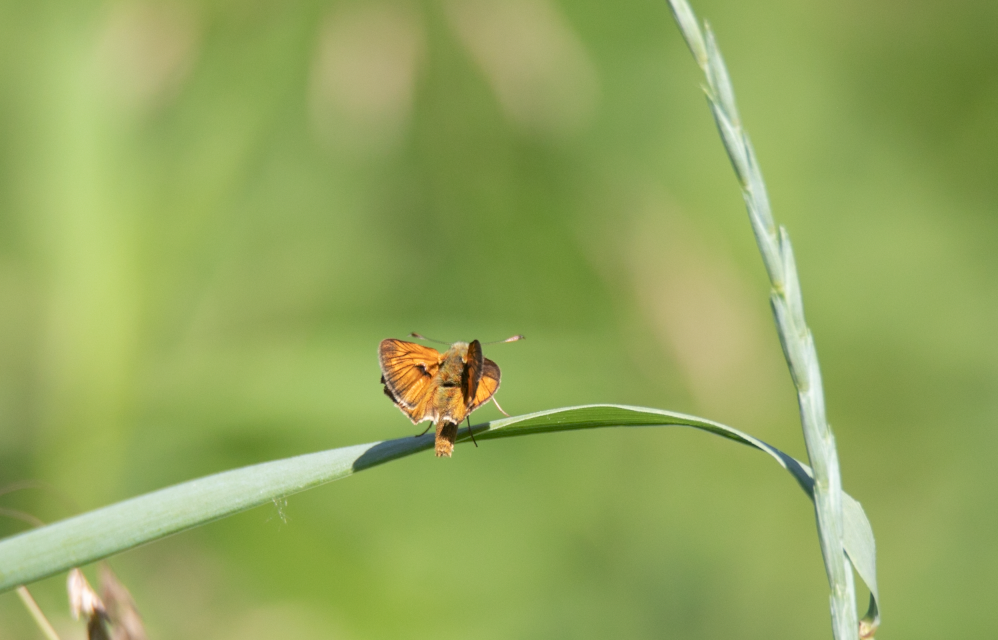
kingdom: Animalia
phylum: Arthropoda
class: Insecta
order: Lepidoptera
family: Hesperiidae
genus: Ochlodes
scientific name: Ochlodes venata
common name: Large skipper
